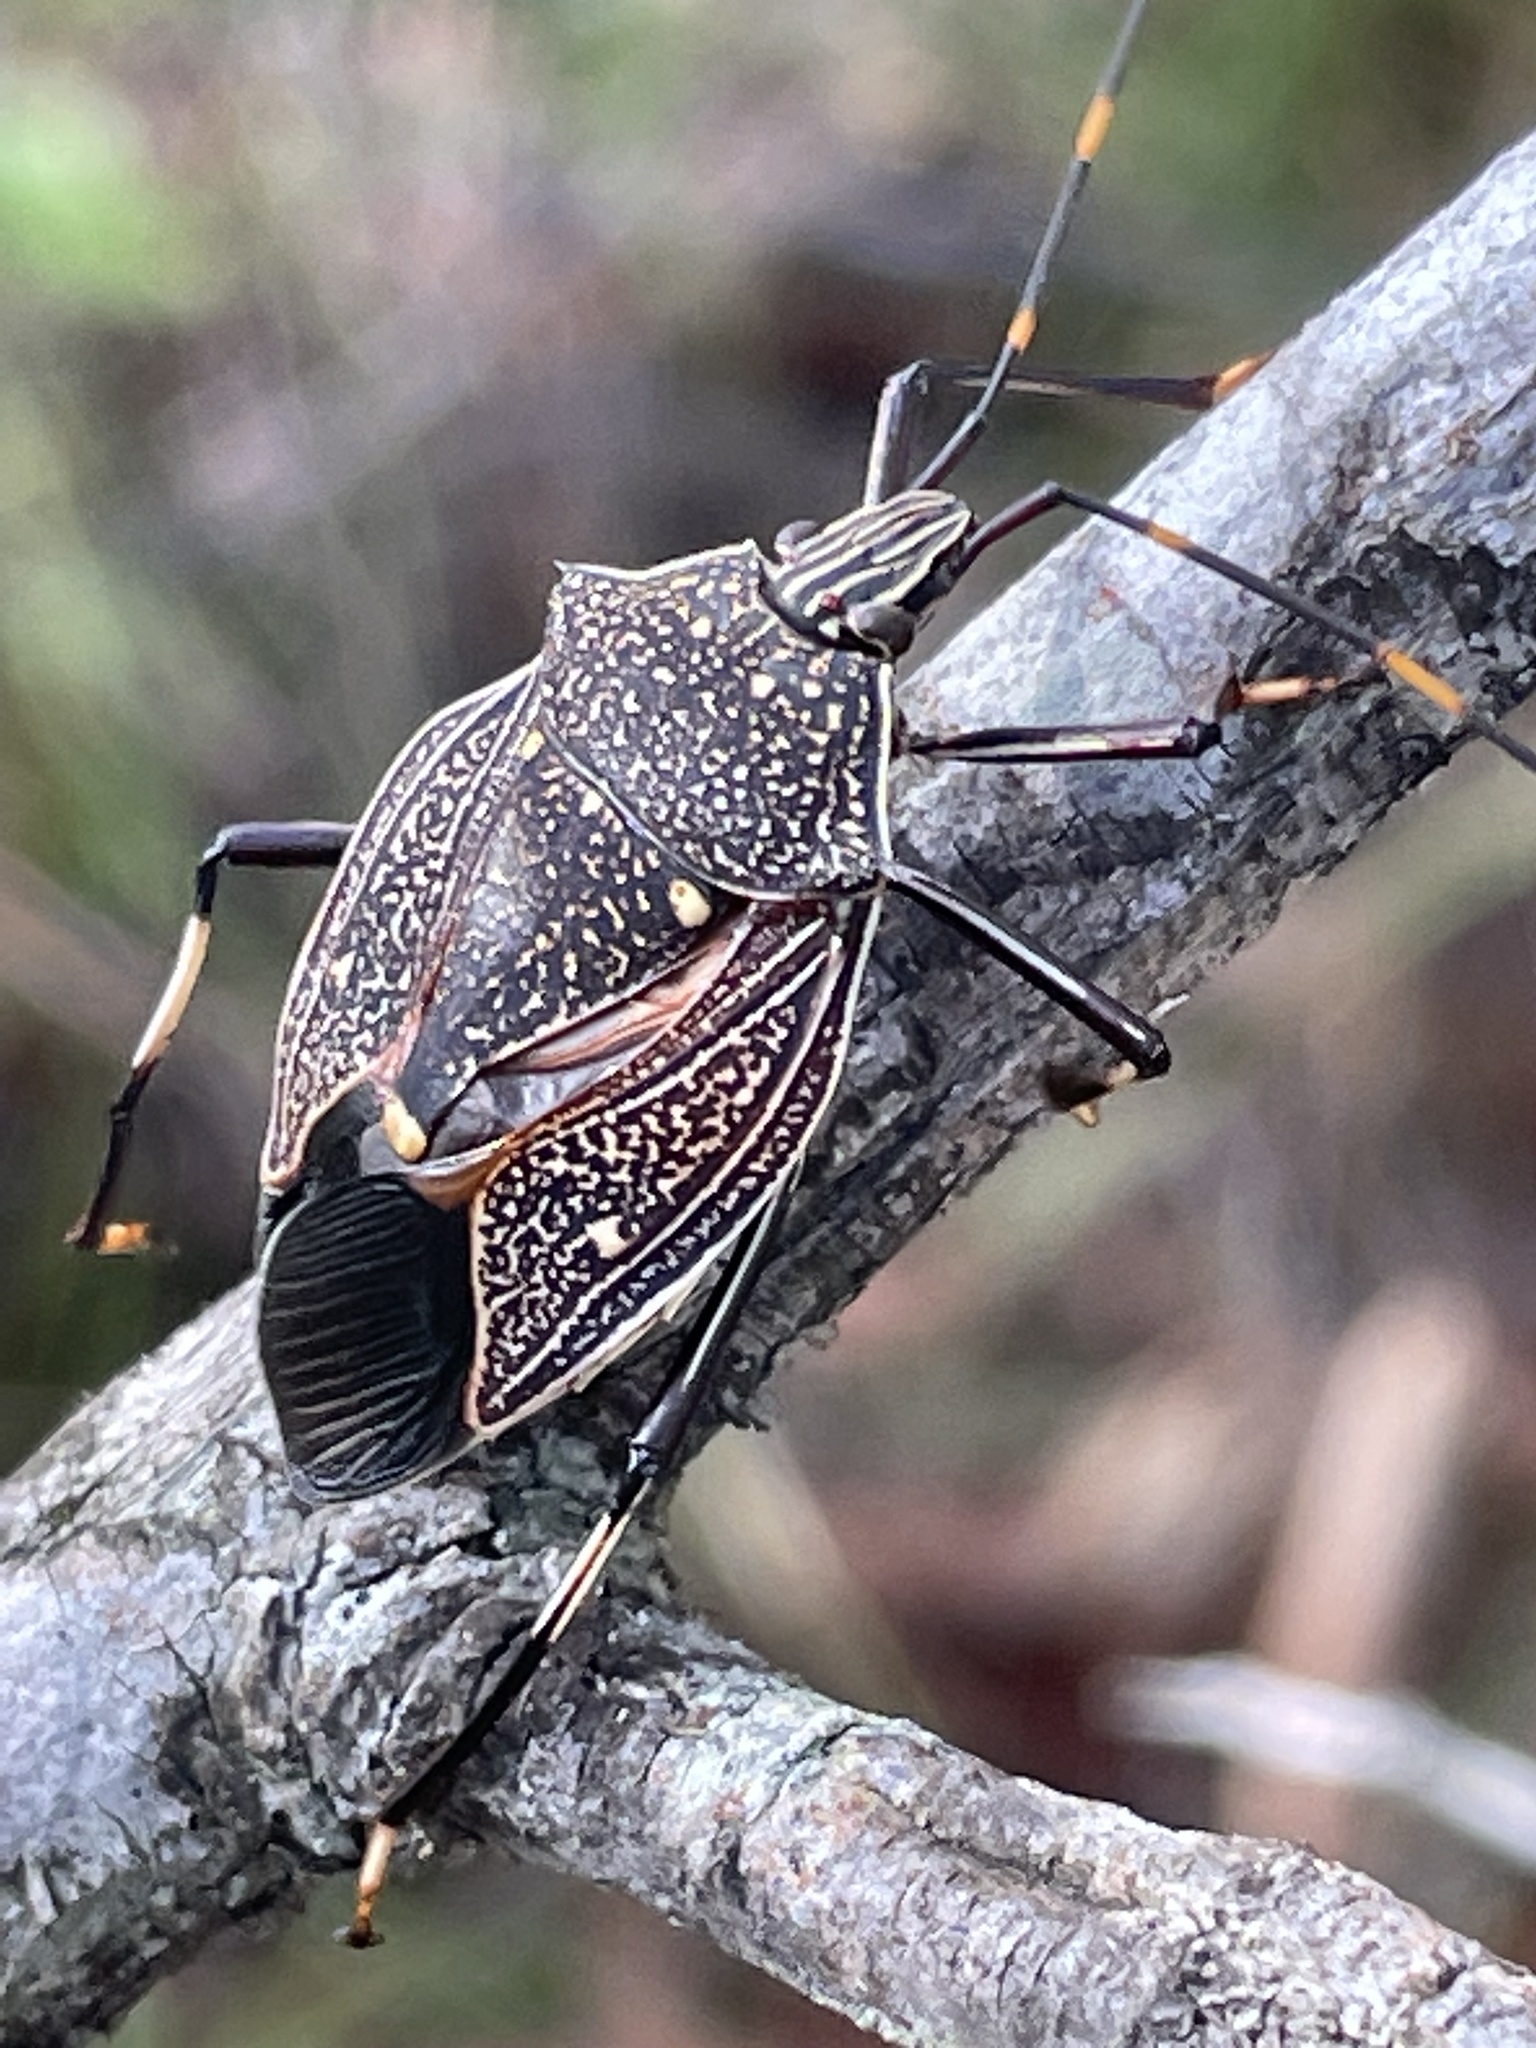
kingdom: Animalia
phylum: Arthropoda
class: Insecta
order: Hemiptera
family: Pentatomidae
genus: Poecilometis
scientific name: Poecilometis
